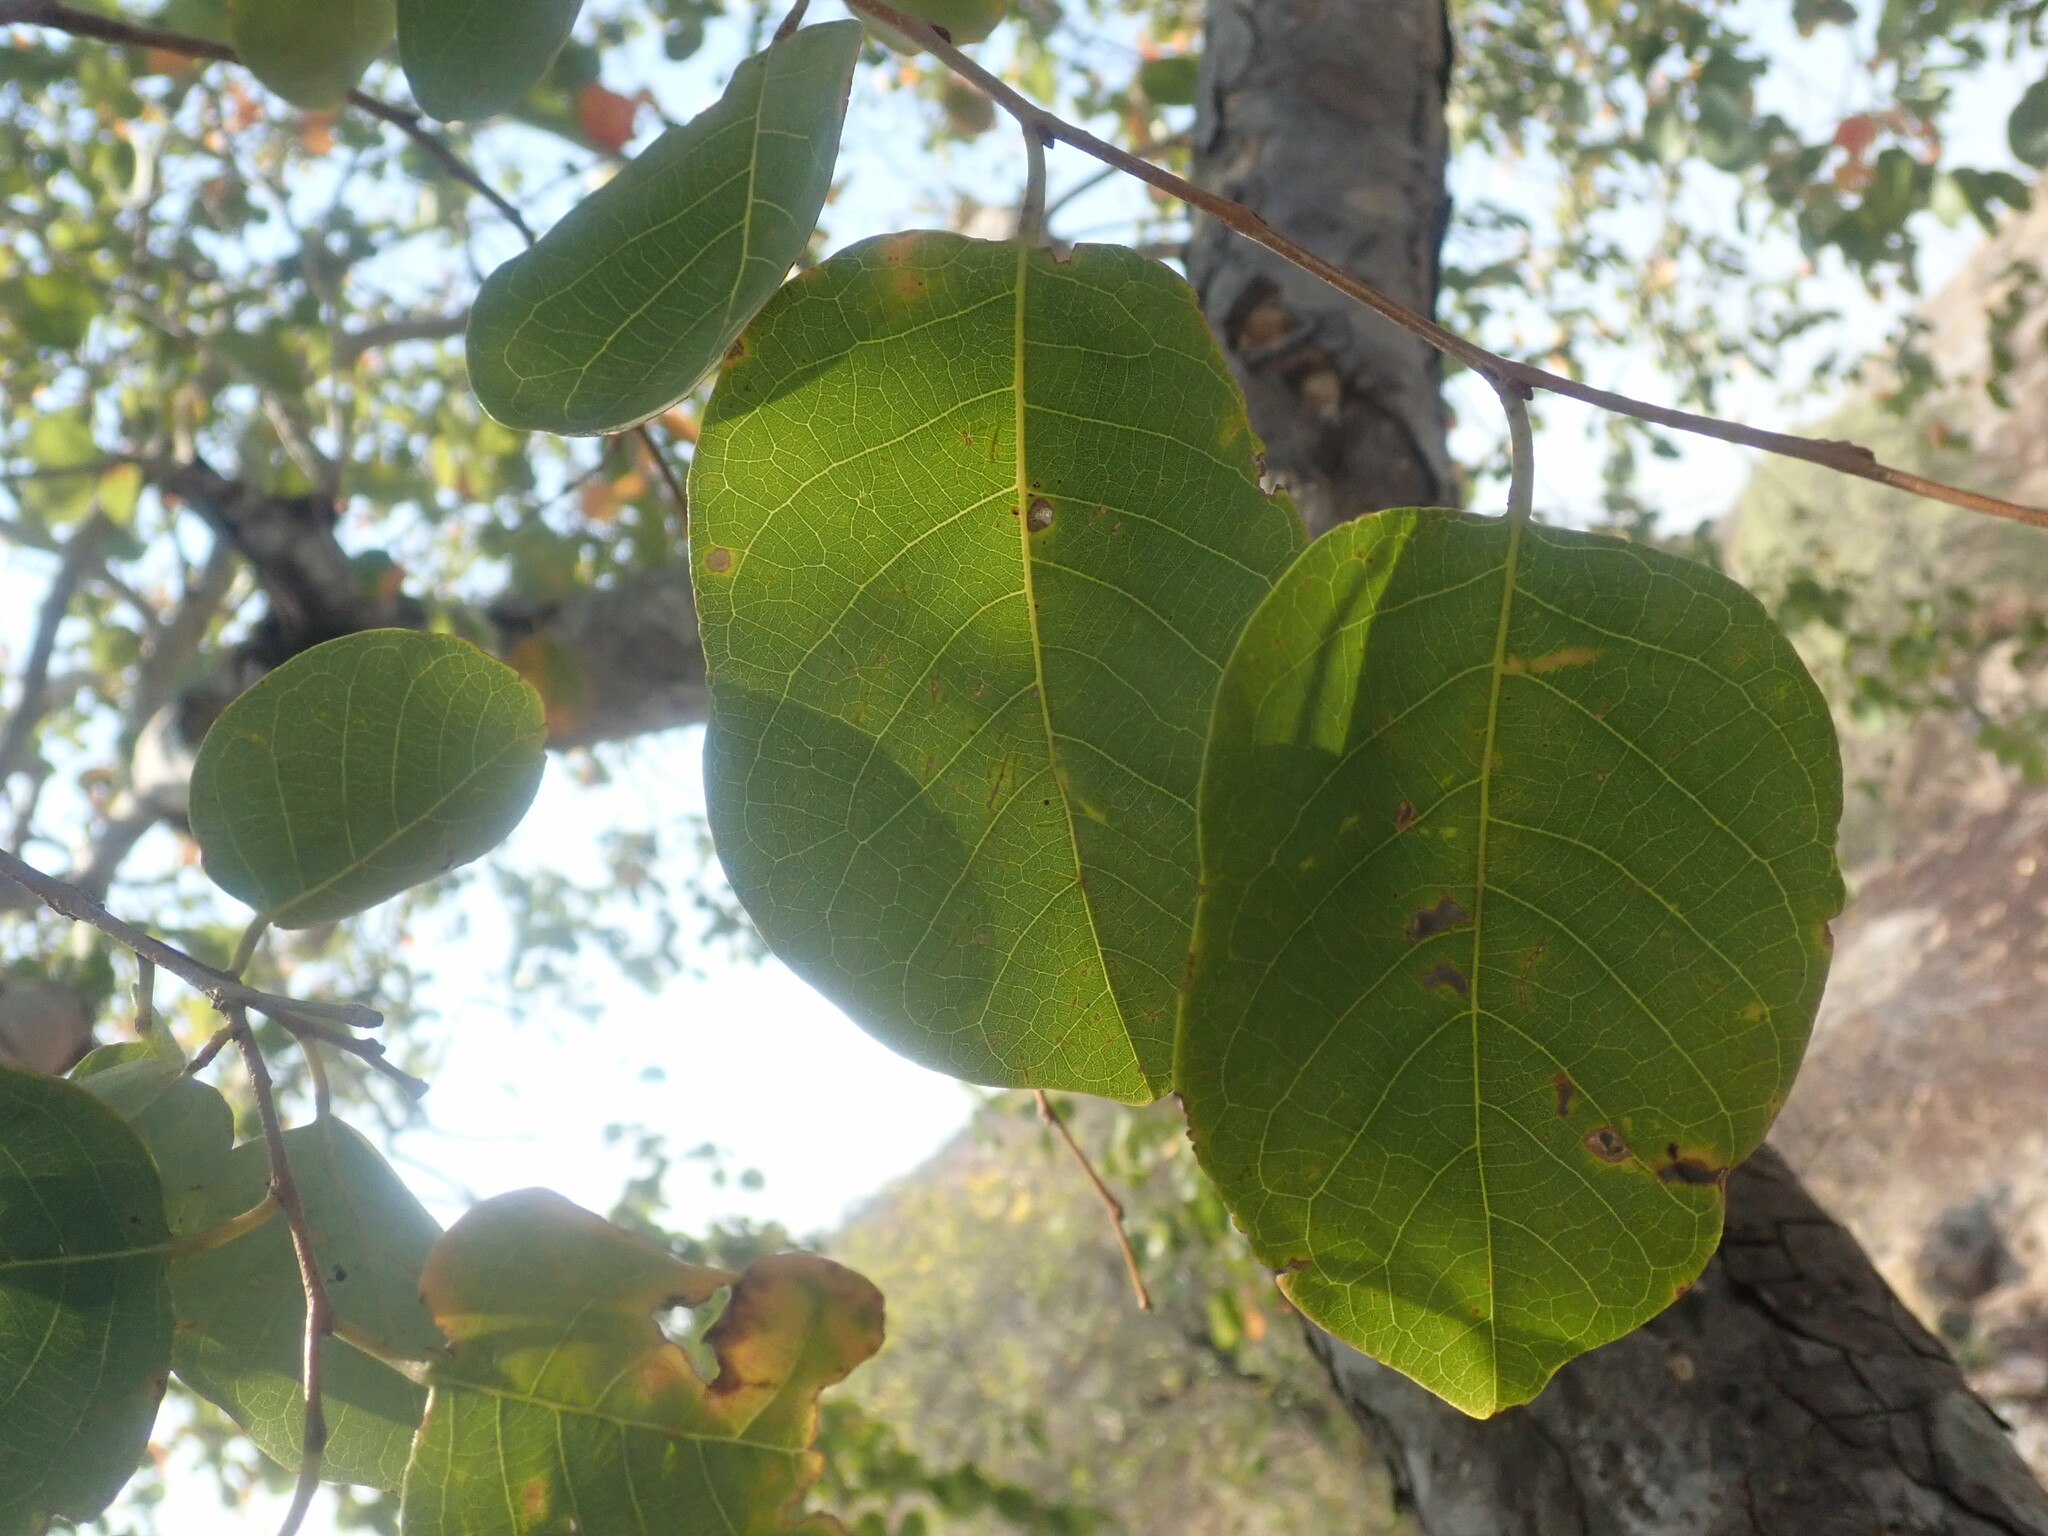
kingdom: Plantae
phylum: Tracheophyta
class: Magnoliopsida
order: Malpighiales
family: Phyllanthaceae
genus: Pseudolachnostylis
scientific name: Pseudolachnostylis maprouneifolia
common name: Kudu berry
